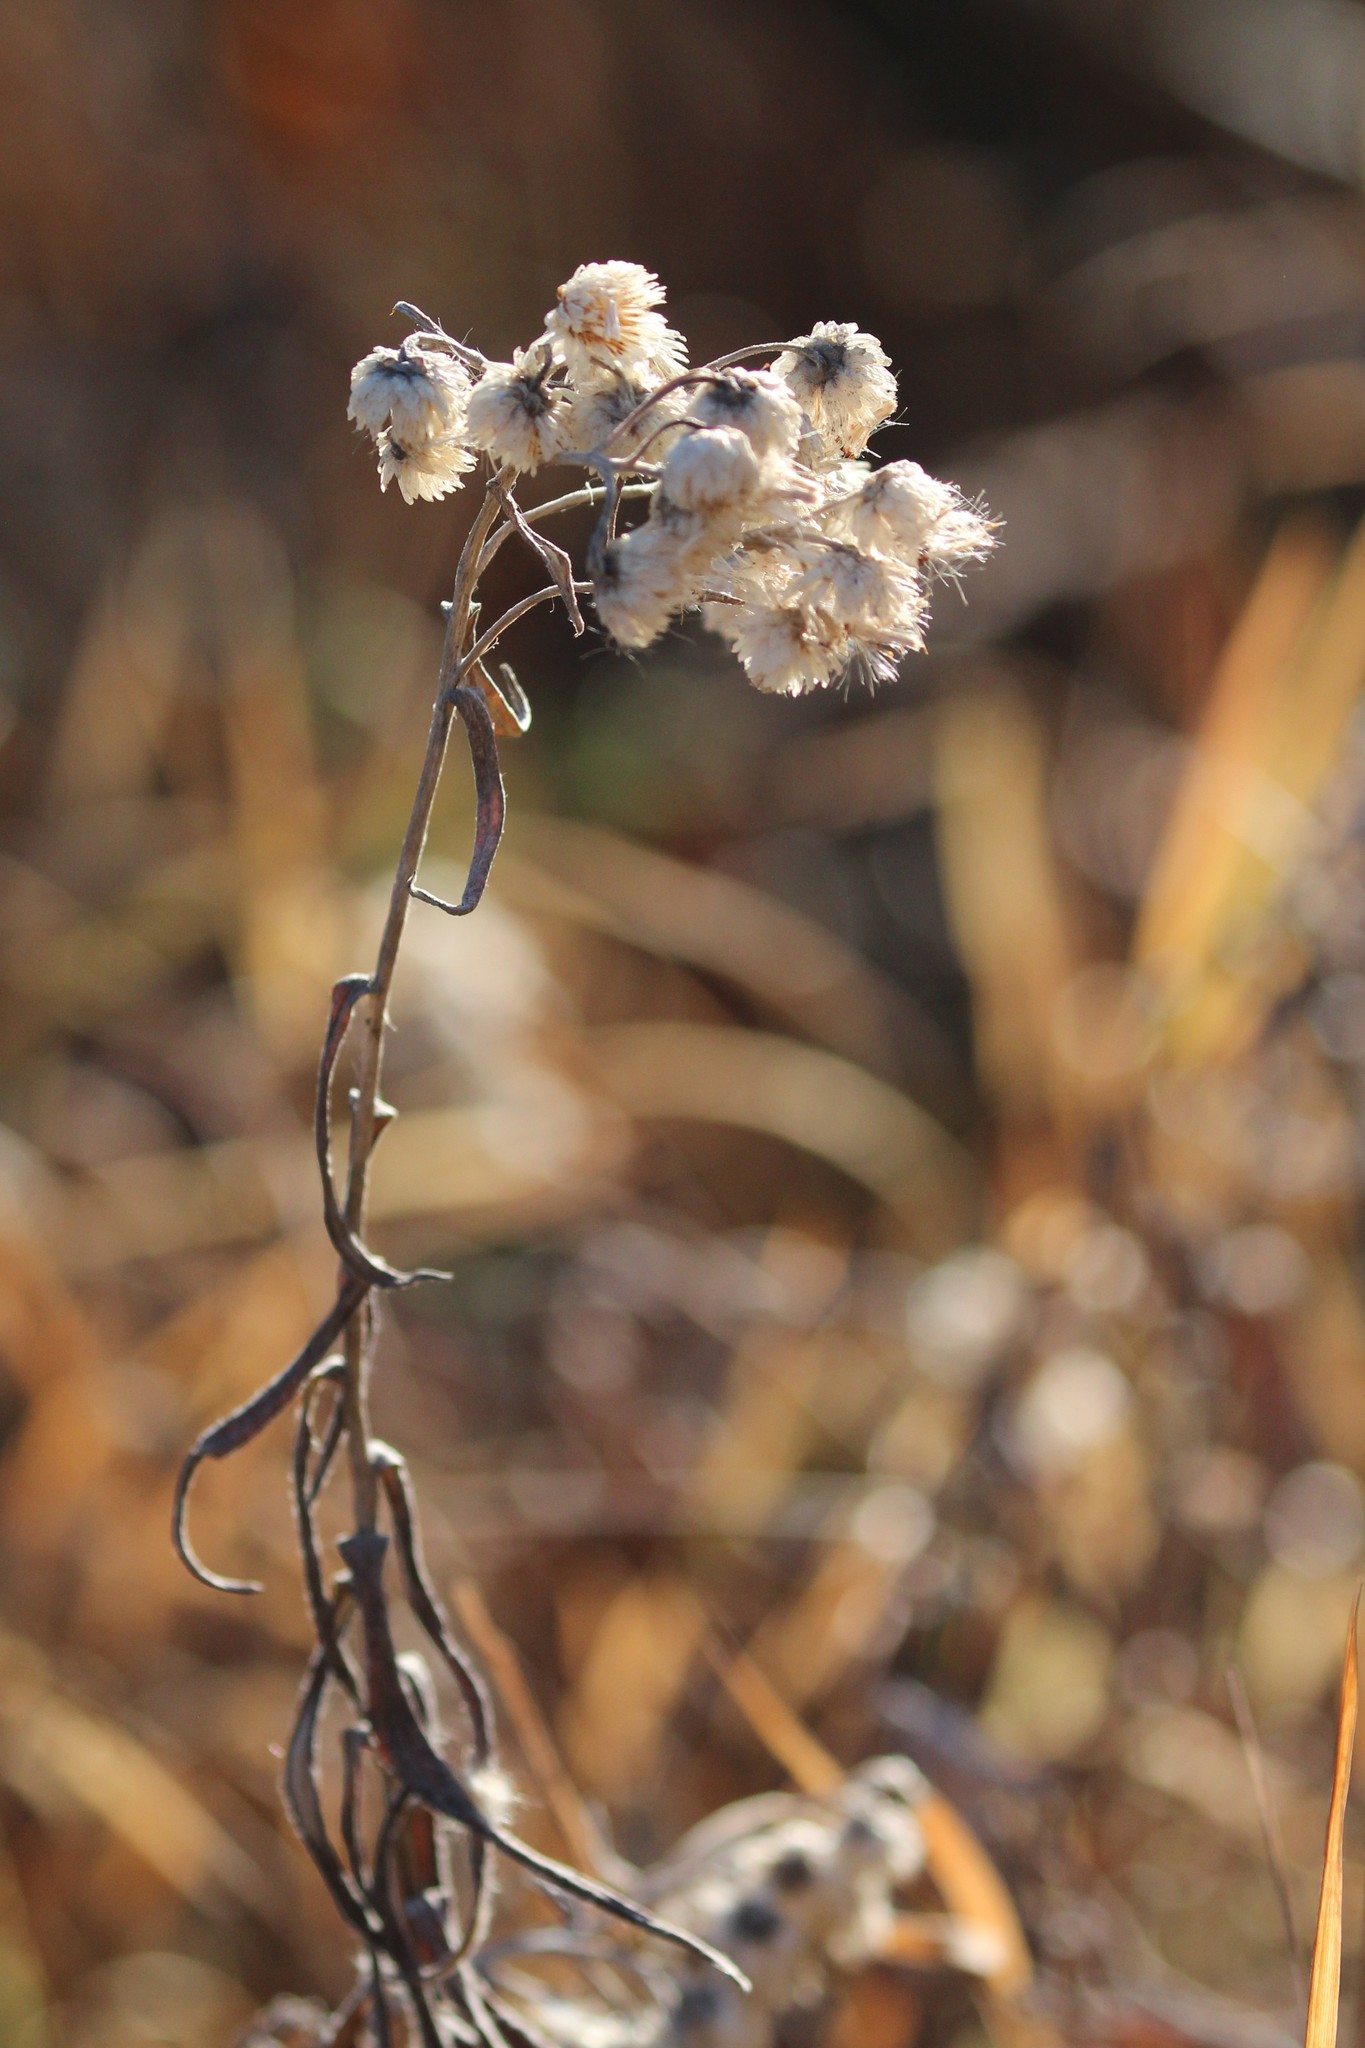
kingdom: Plantae
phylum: Tracheophyta
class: Magnoliopsida
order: Asterales
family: Asteraceae
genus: Anaphalis
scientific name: Anaphalis margaritacea
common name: Pearly everlasting
